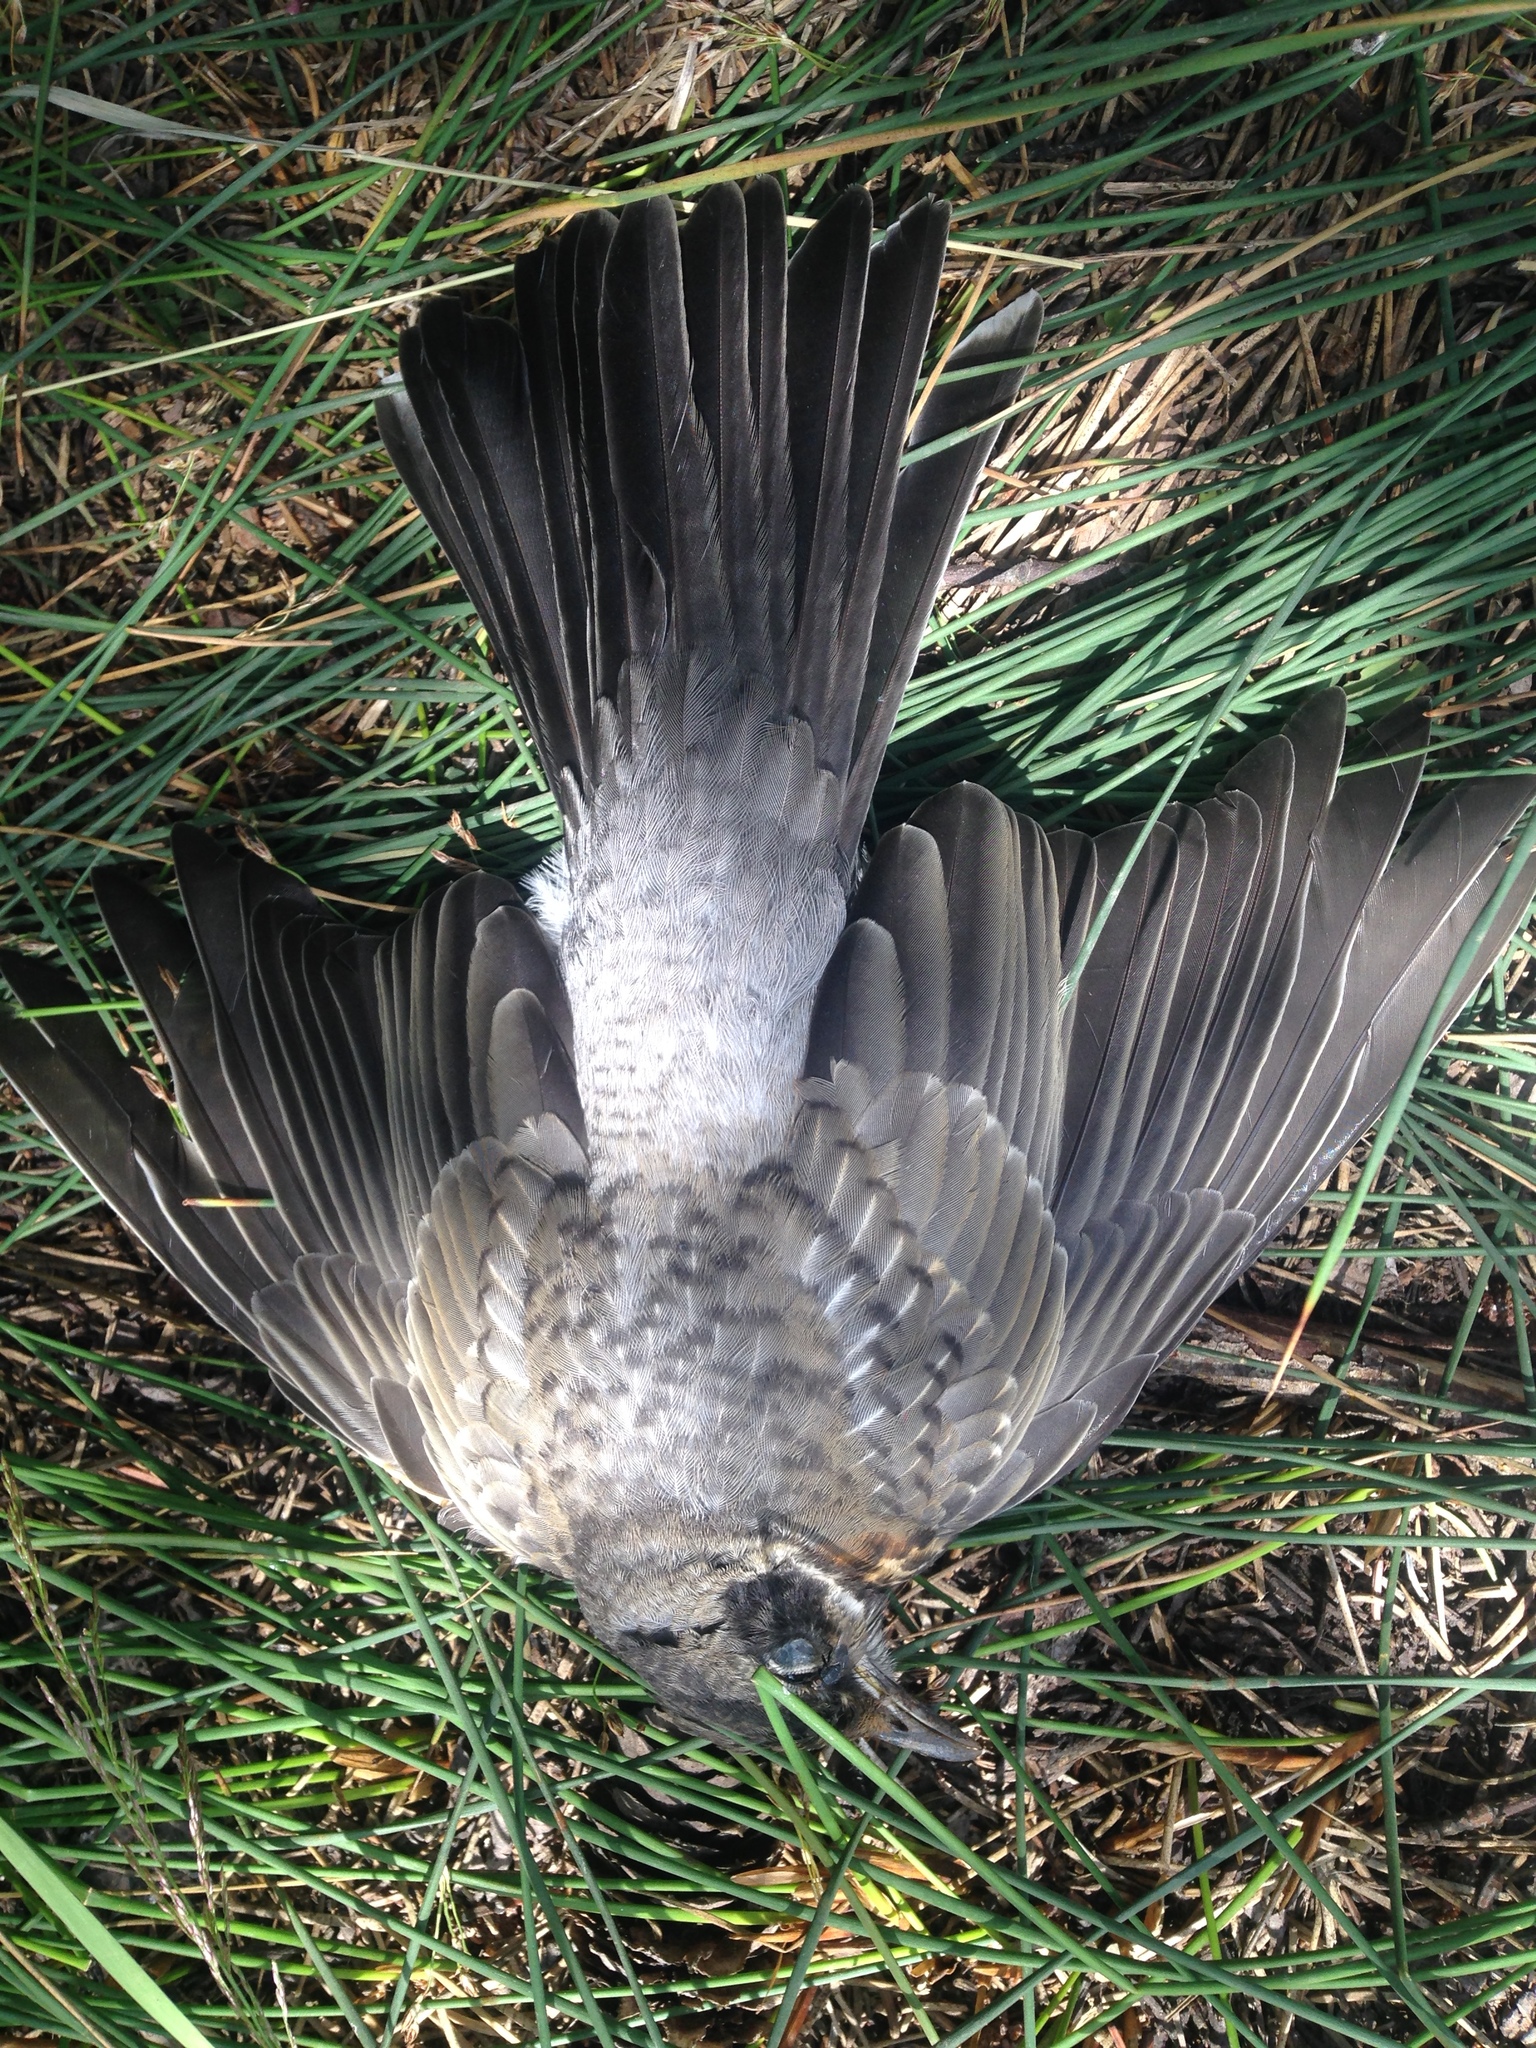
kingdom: Animalia
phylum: Chordata
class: Aves
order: Passeriformes
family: Turdidae
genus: Turdus
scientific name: Turdus migratorius
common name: American robin
